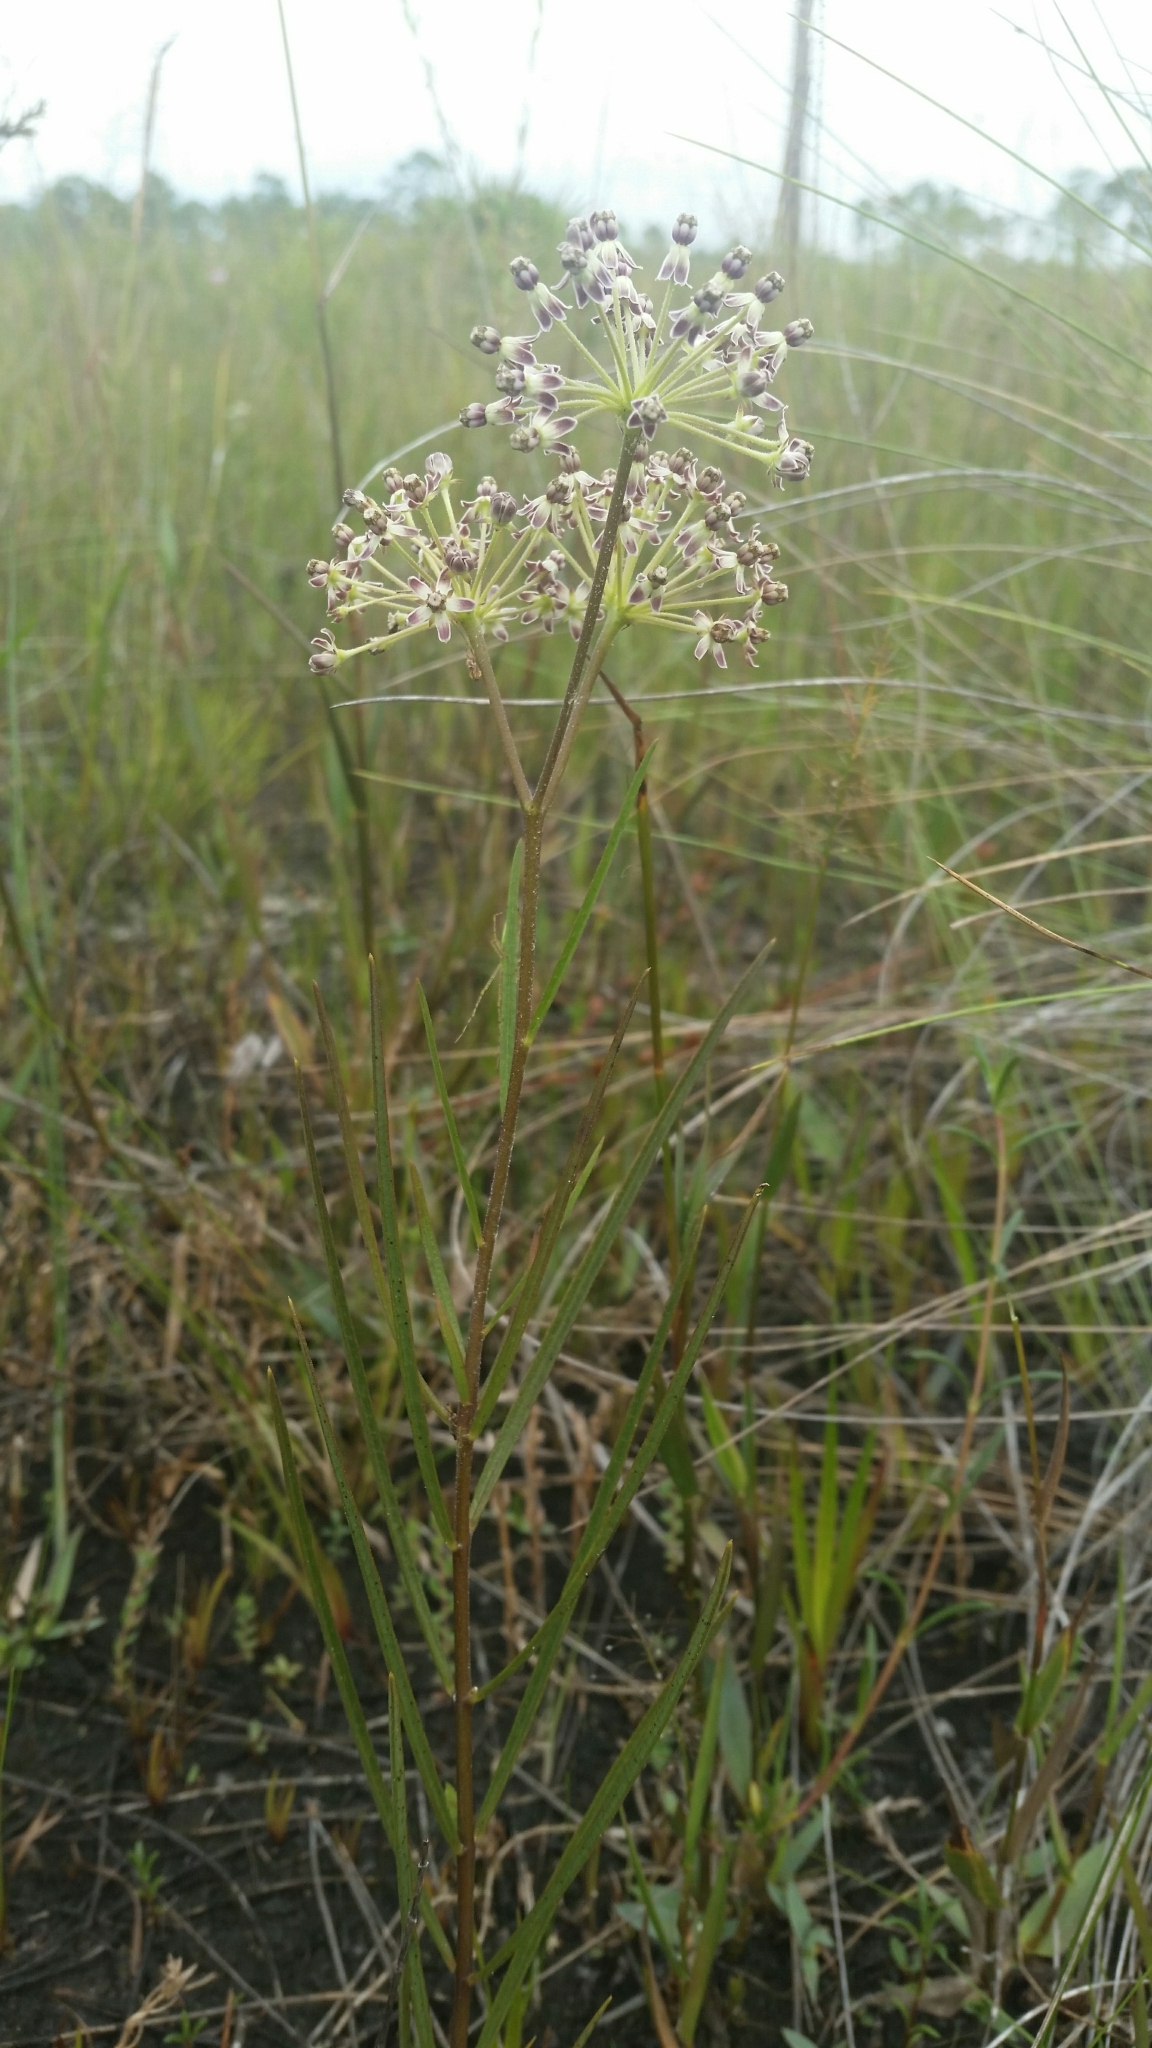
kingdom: Plantae
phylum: Tracheophyta
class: Magnoliopsida
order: Gentianales
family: Apocynaceae
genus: Asclepias
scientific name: Asclepias longifolia
